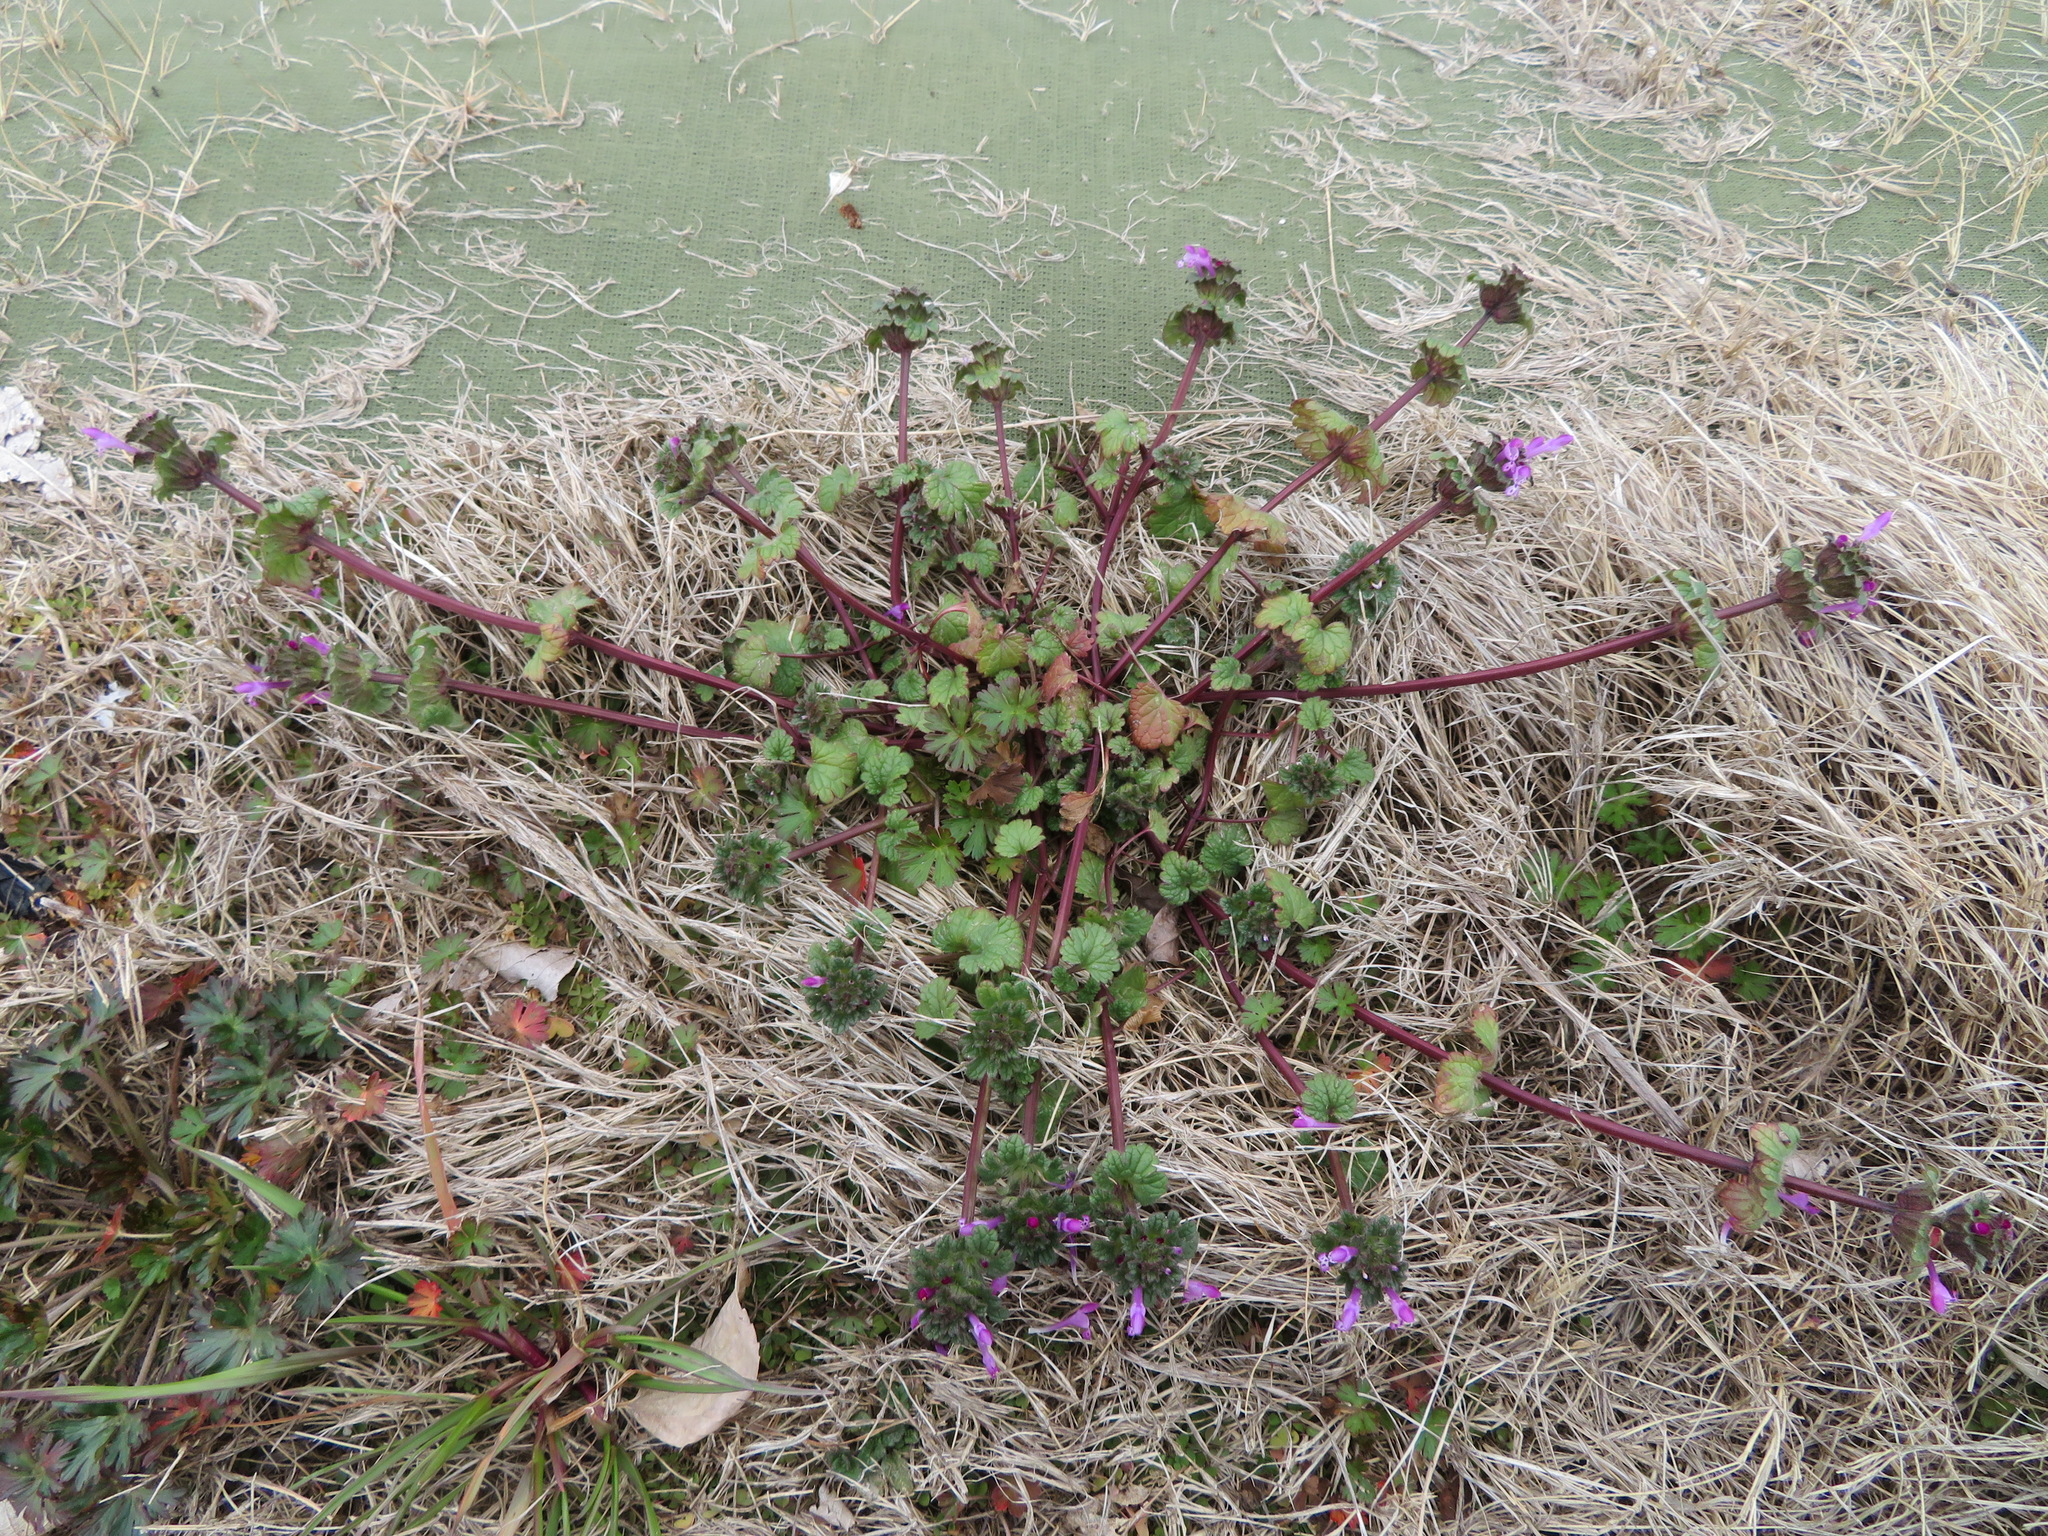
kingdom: Plantae
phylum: Tracheophyta
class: Magnoliopsida
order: Lamiales
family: Lamiaceae
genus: Lamium
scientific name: Lamium amplexicaule
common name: Henbit dead-nettle
